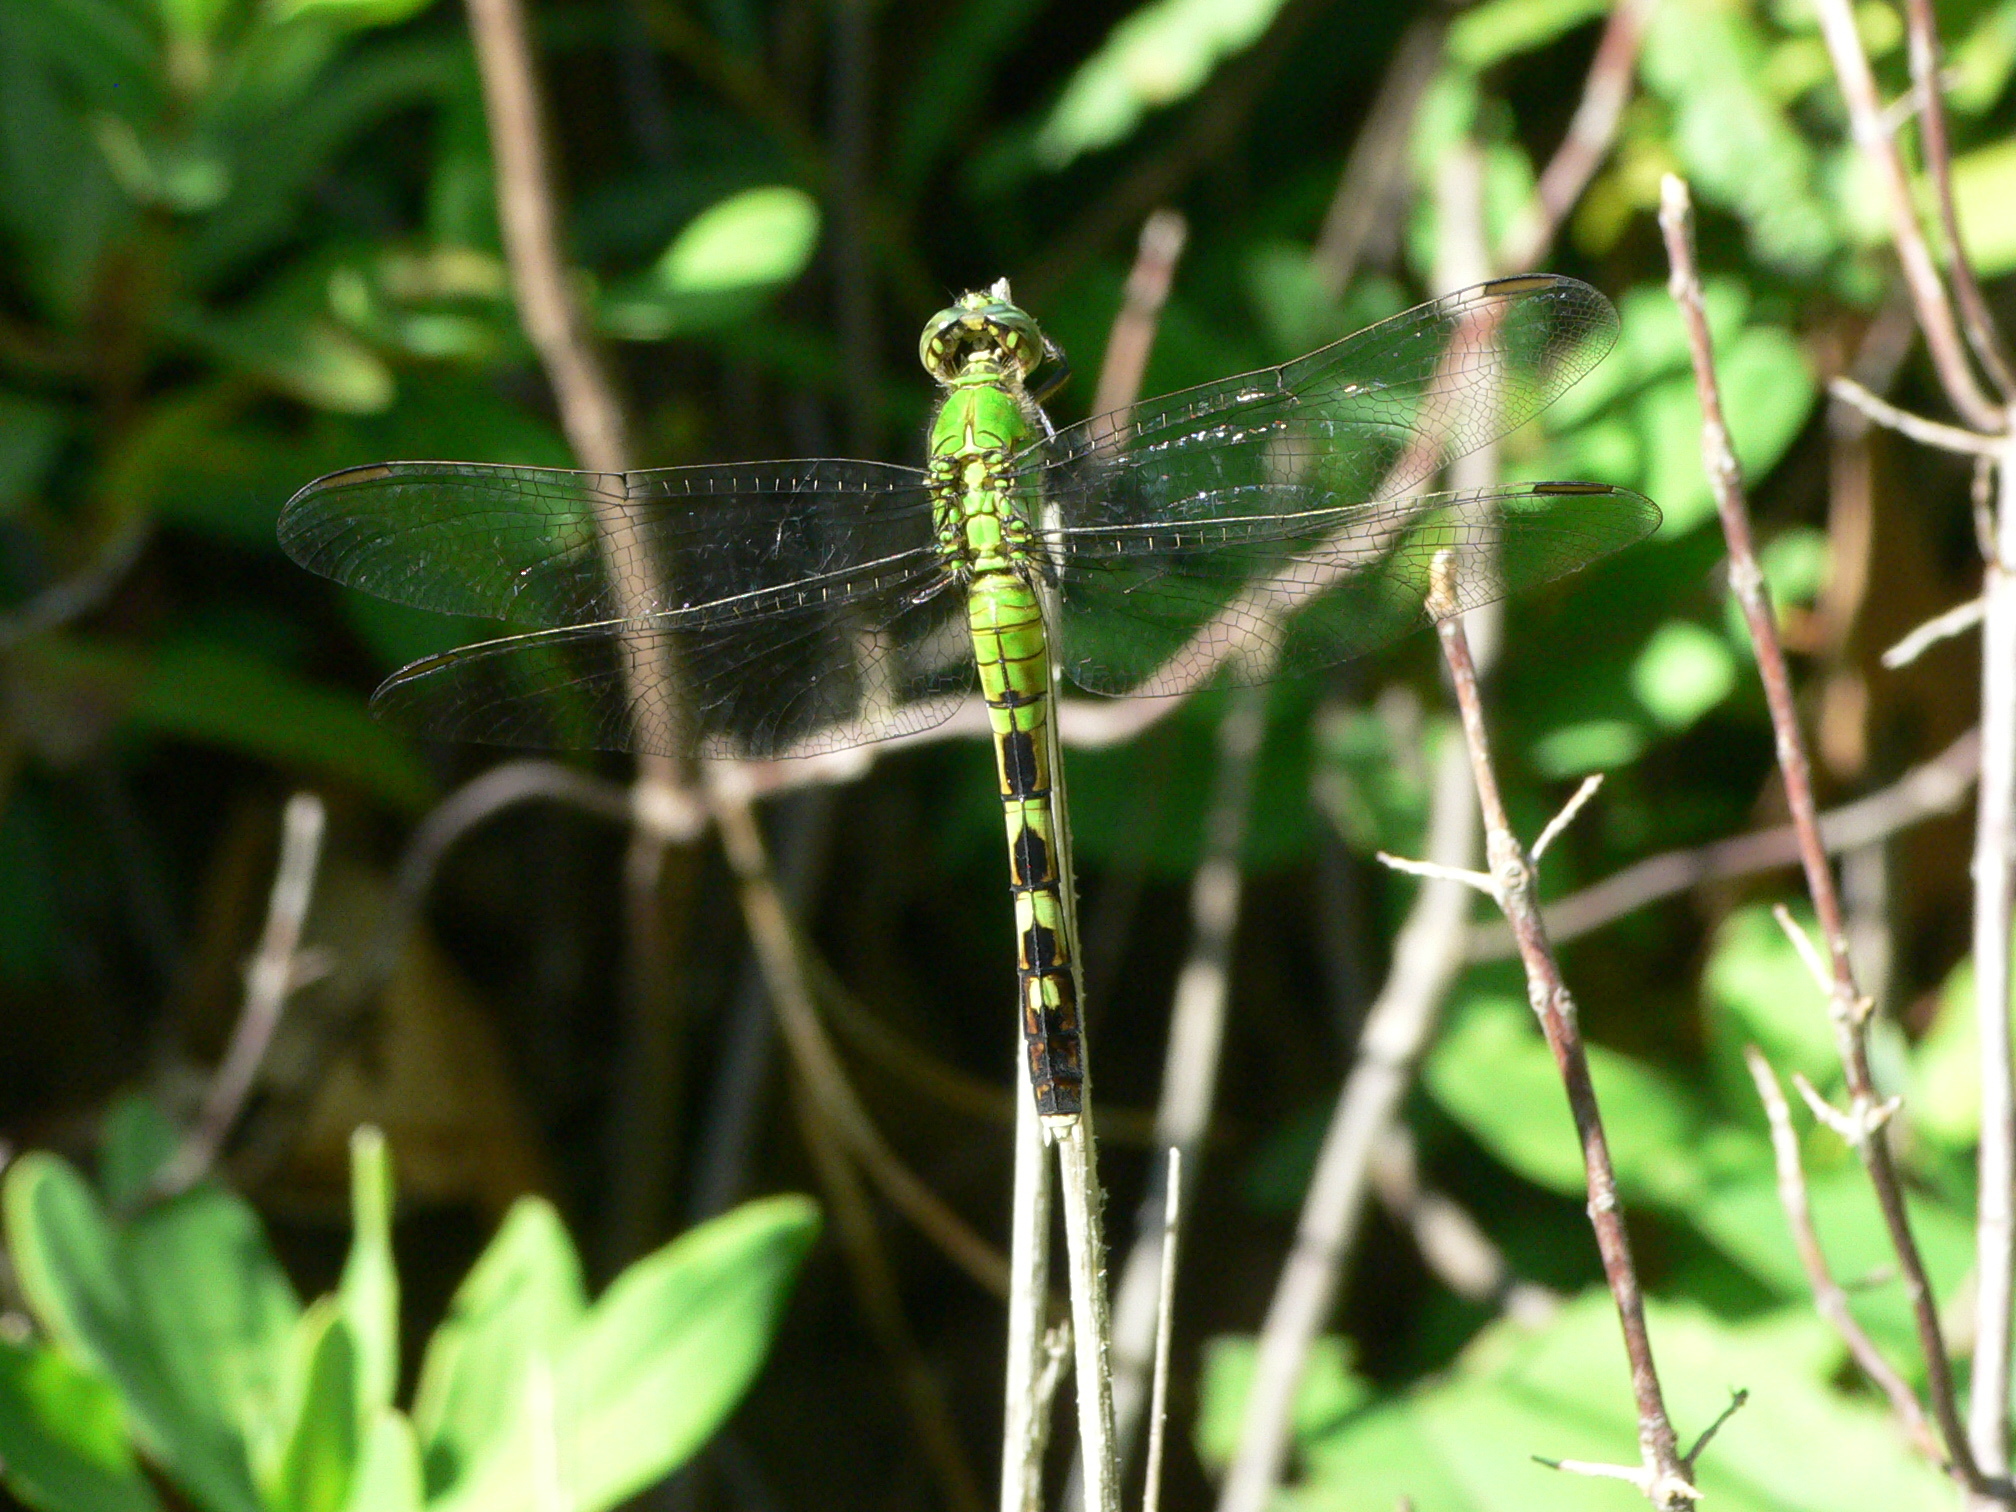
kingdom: Animalia
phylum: Arthropoda
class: Insecta
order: Odonata
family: Libellulidae
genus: Erythemis
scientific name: Erythemis simplicicollis
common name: Eastern pondhawk
